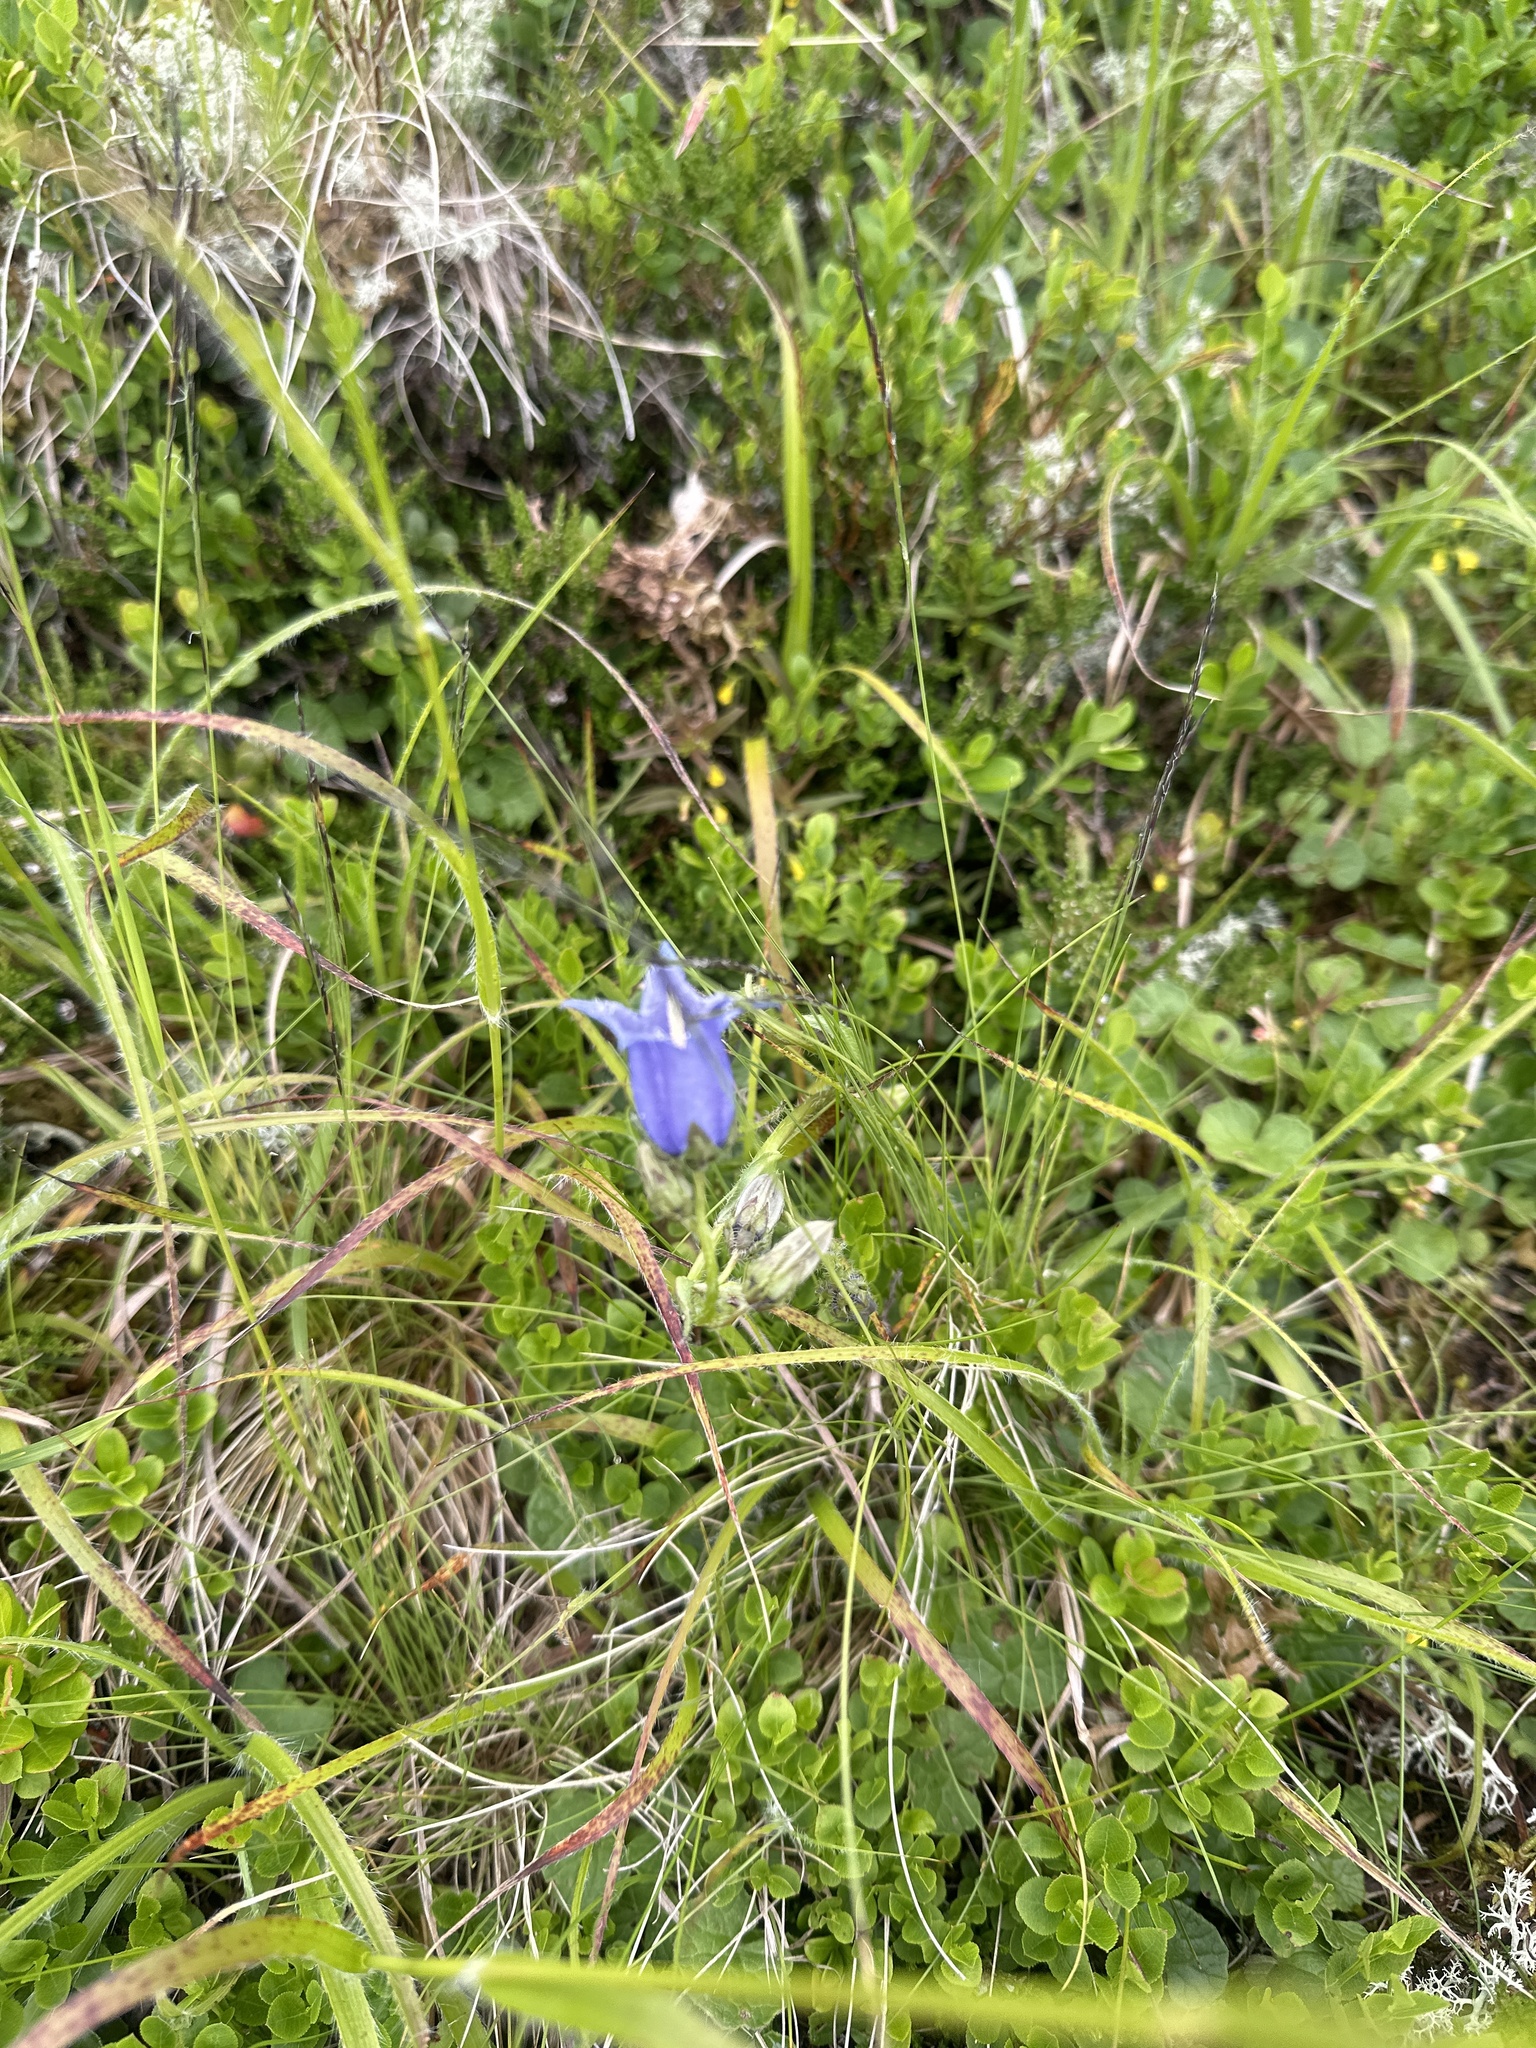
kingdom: Plantae
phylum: Tracheophyta
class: Magnoliopsida
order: Asterales
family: Campanulaceae
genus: Campanula
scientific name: Campanula barbata
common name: Bearded bellflower
